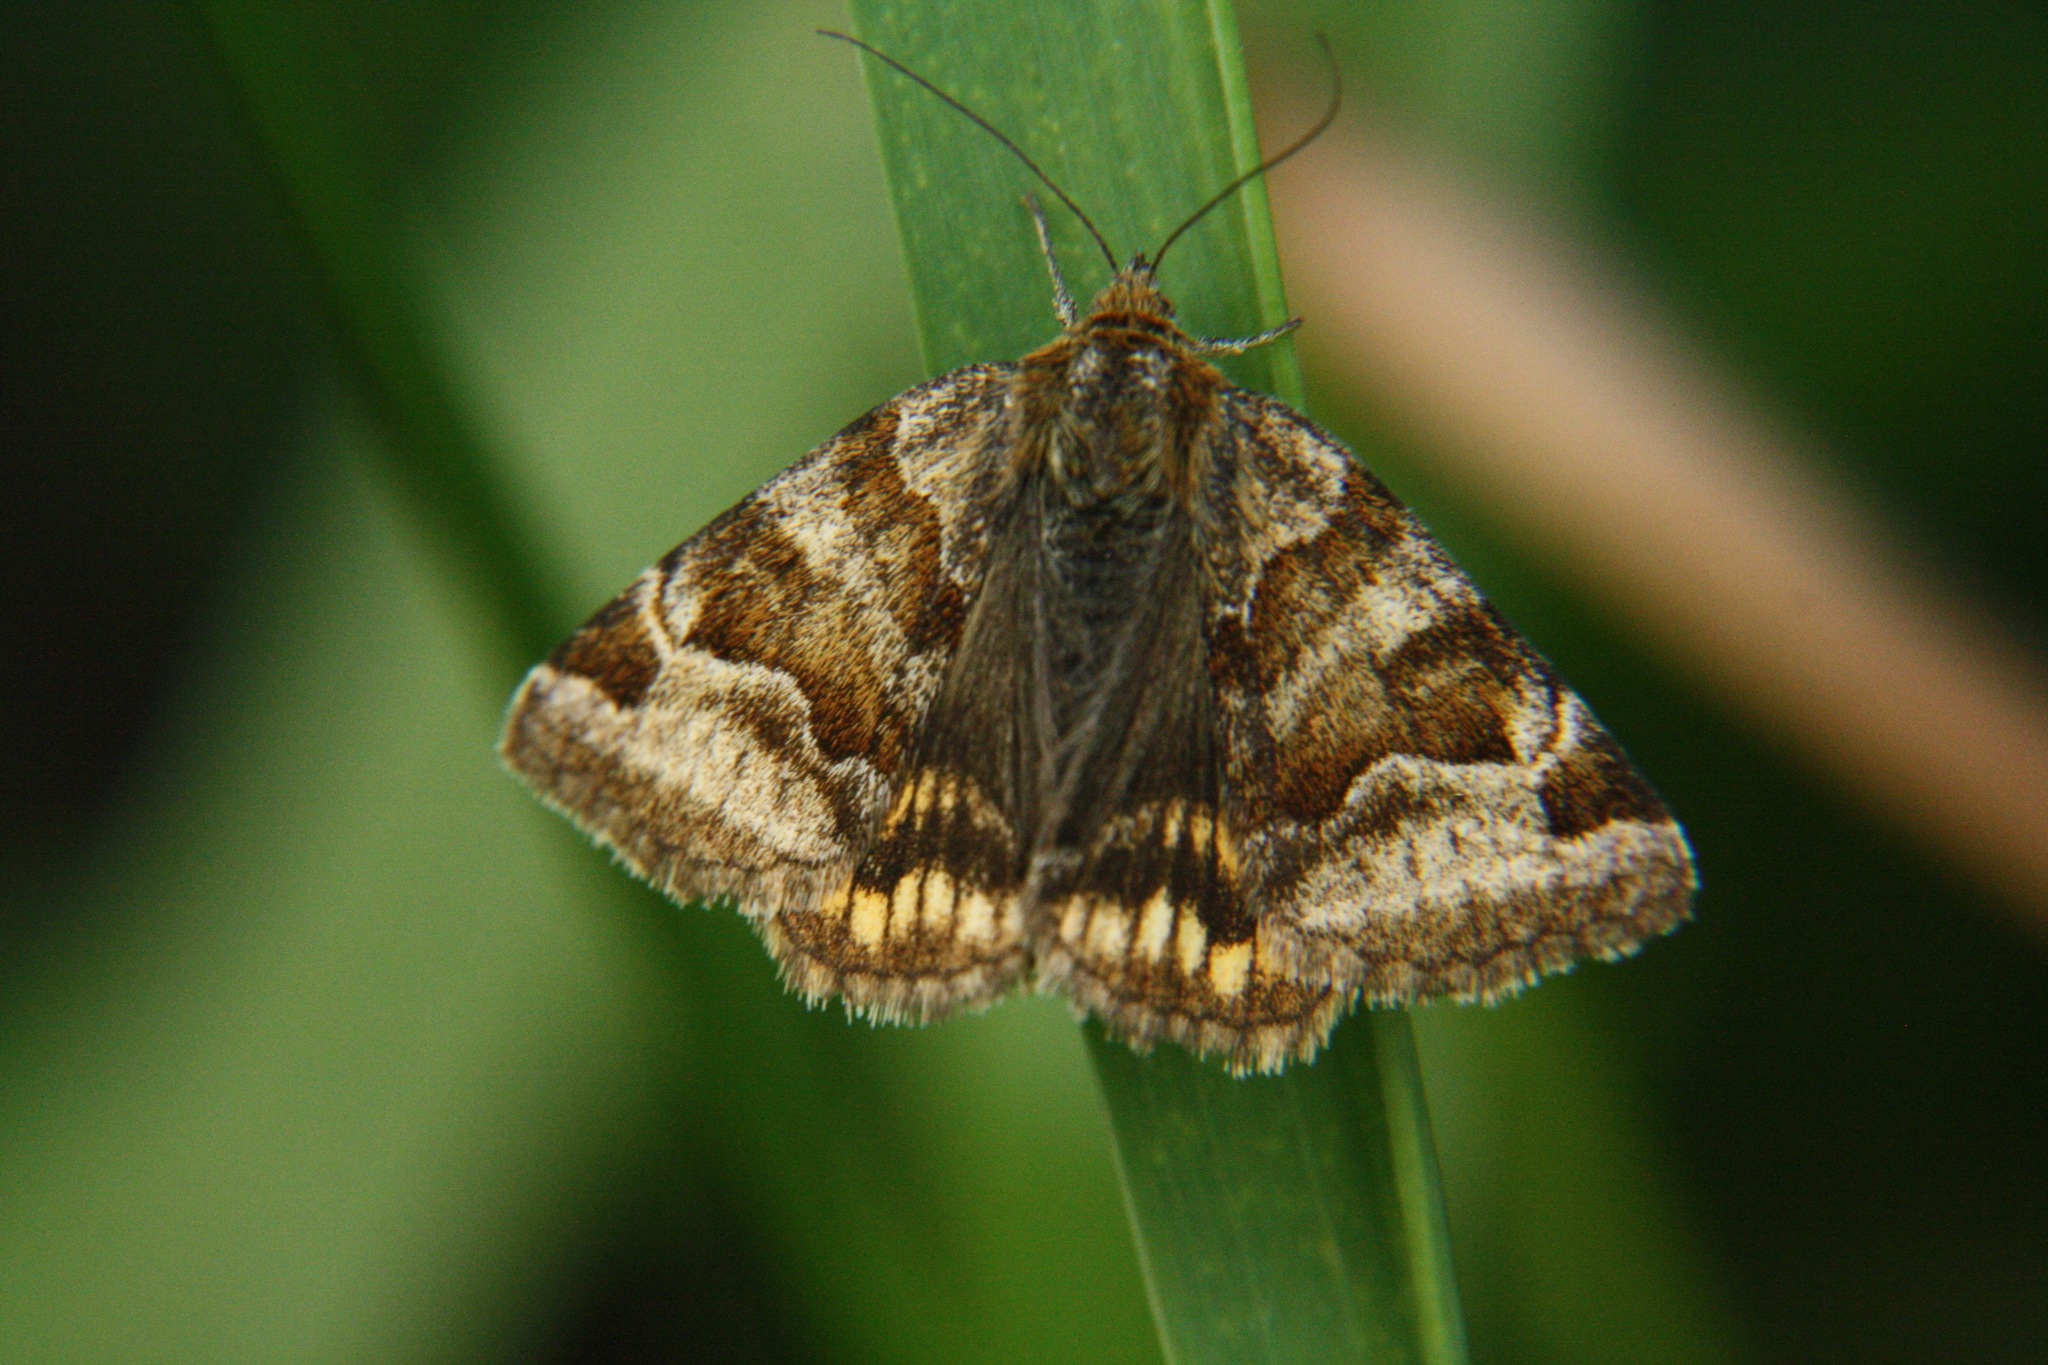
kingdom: Animalia
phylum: Arthropoda
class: Insecta
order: Lepidoptera
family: Erebidae
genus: Euclidia
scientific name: Euclidia glyphica
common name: Burnet companion
